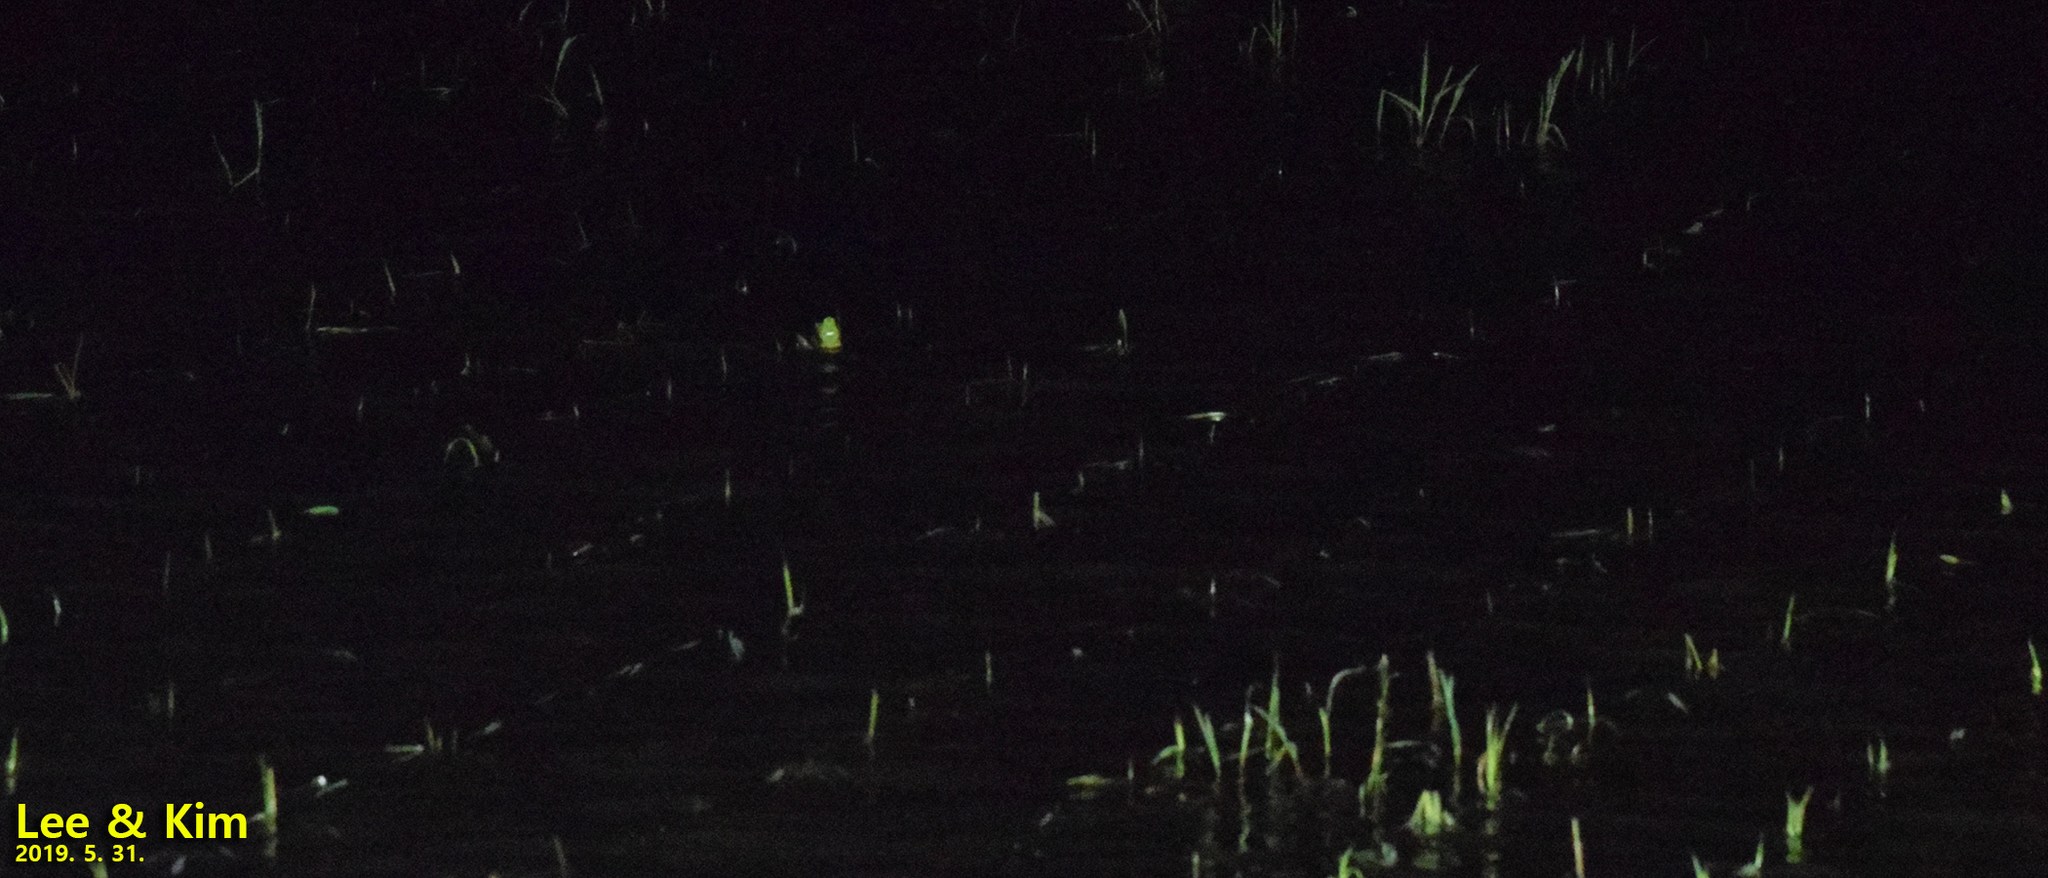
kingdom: Animalia
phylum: Chordata
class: Amphibia
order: Anura
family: Hylidae
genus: Dryophytes
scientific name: Dryophytes immaculatus
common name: North china treefrog
